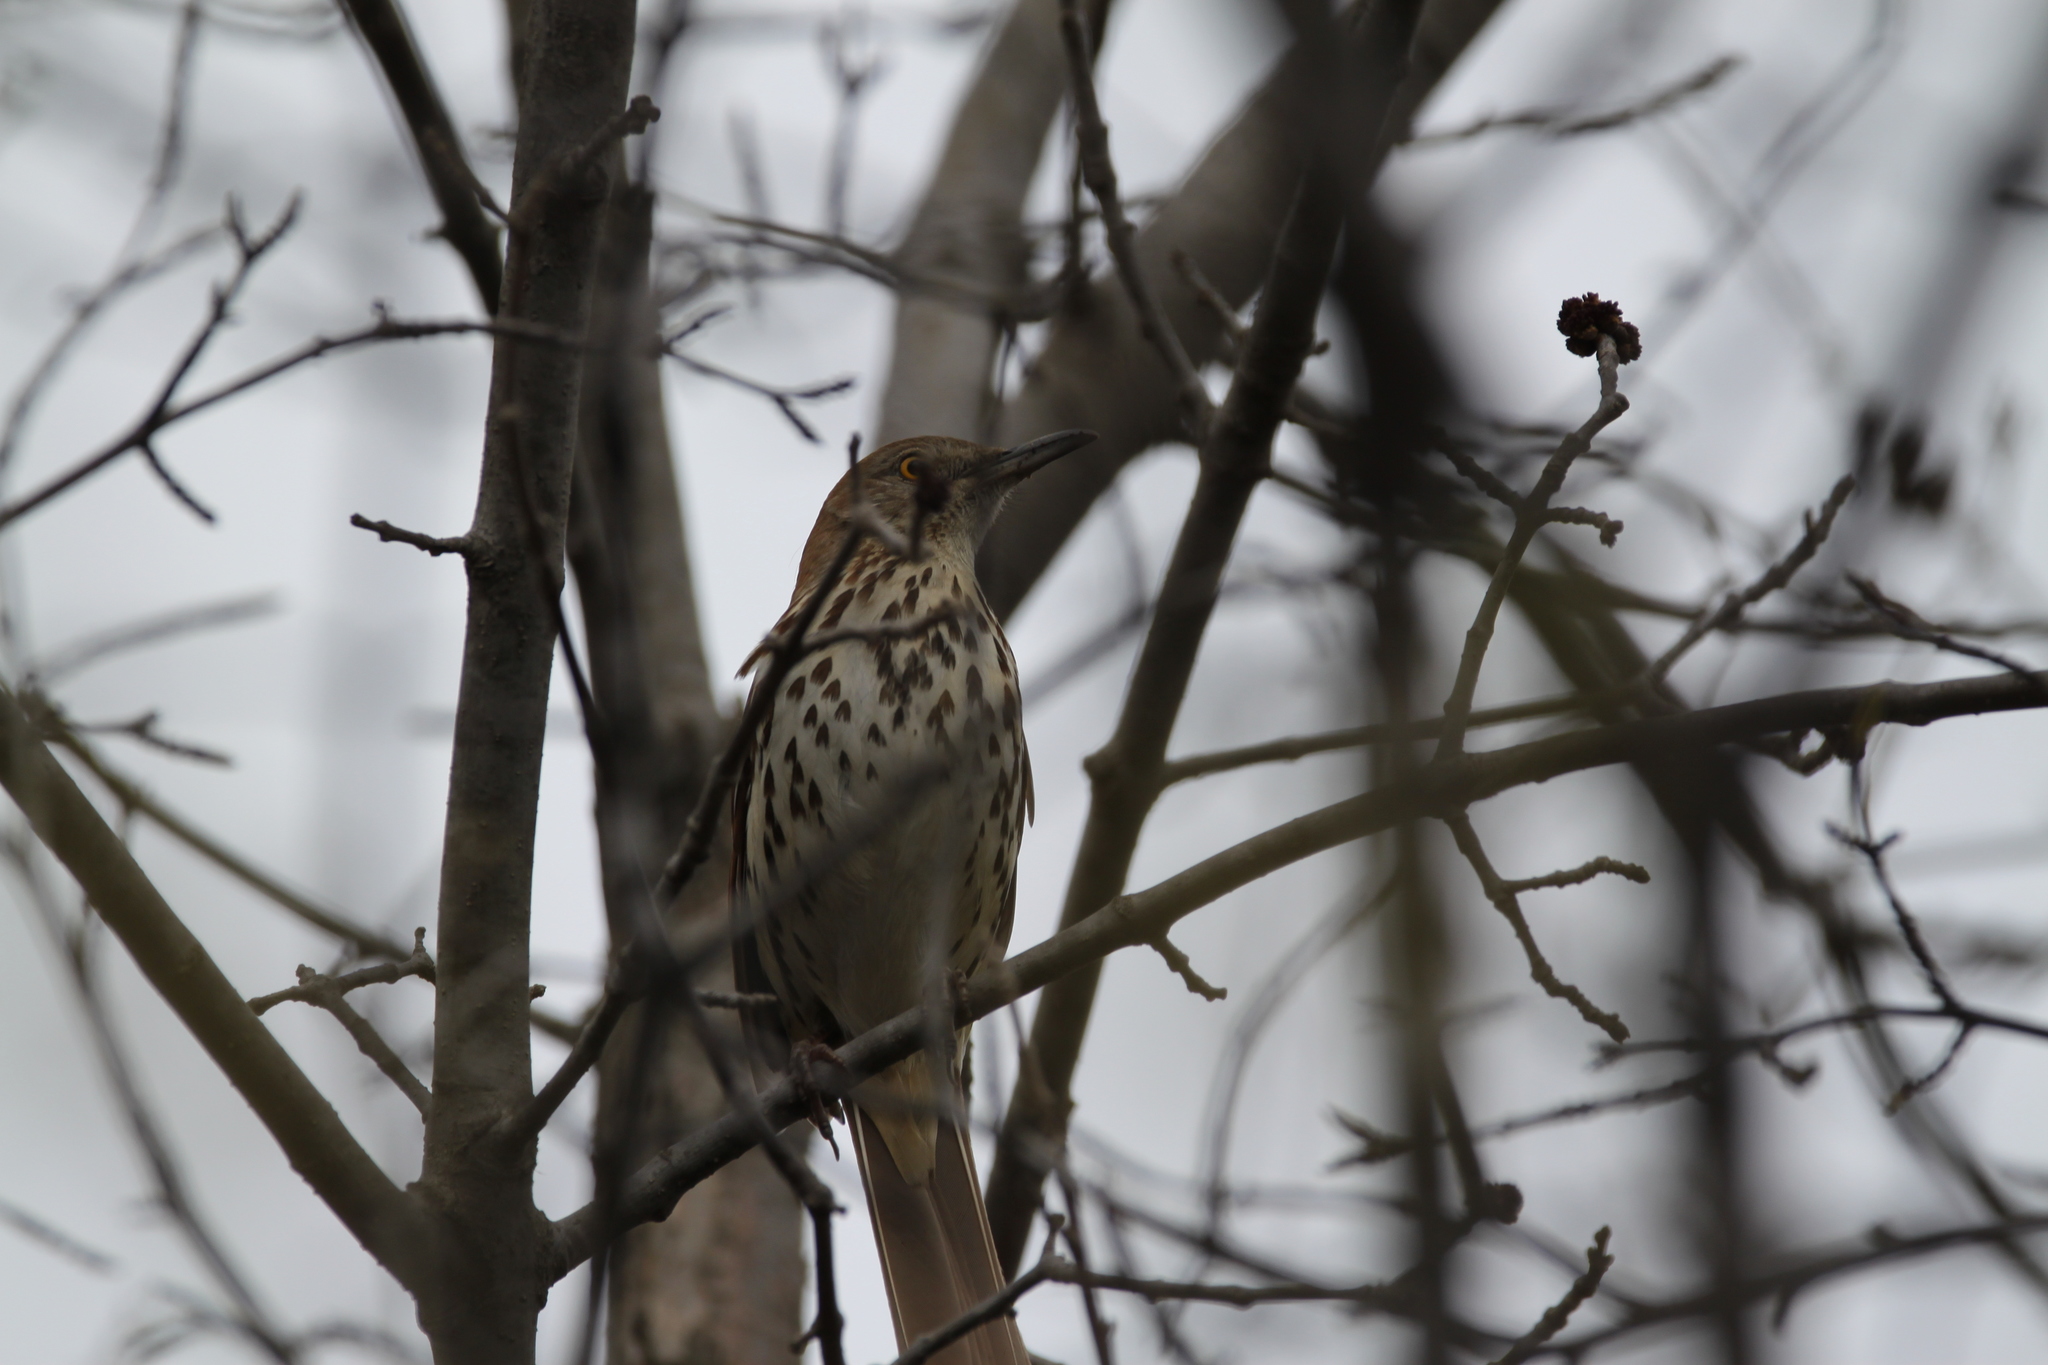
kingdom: Animalia
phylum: Chordata
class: Aves
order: Passeriformes
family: Mimidae
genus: Toxostoma
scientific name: Toxostoma rufum
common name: Brown thrasher
